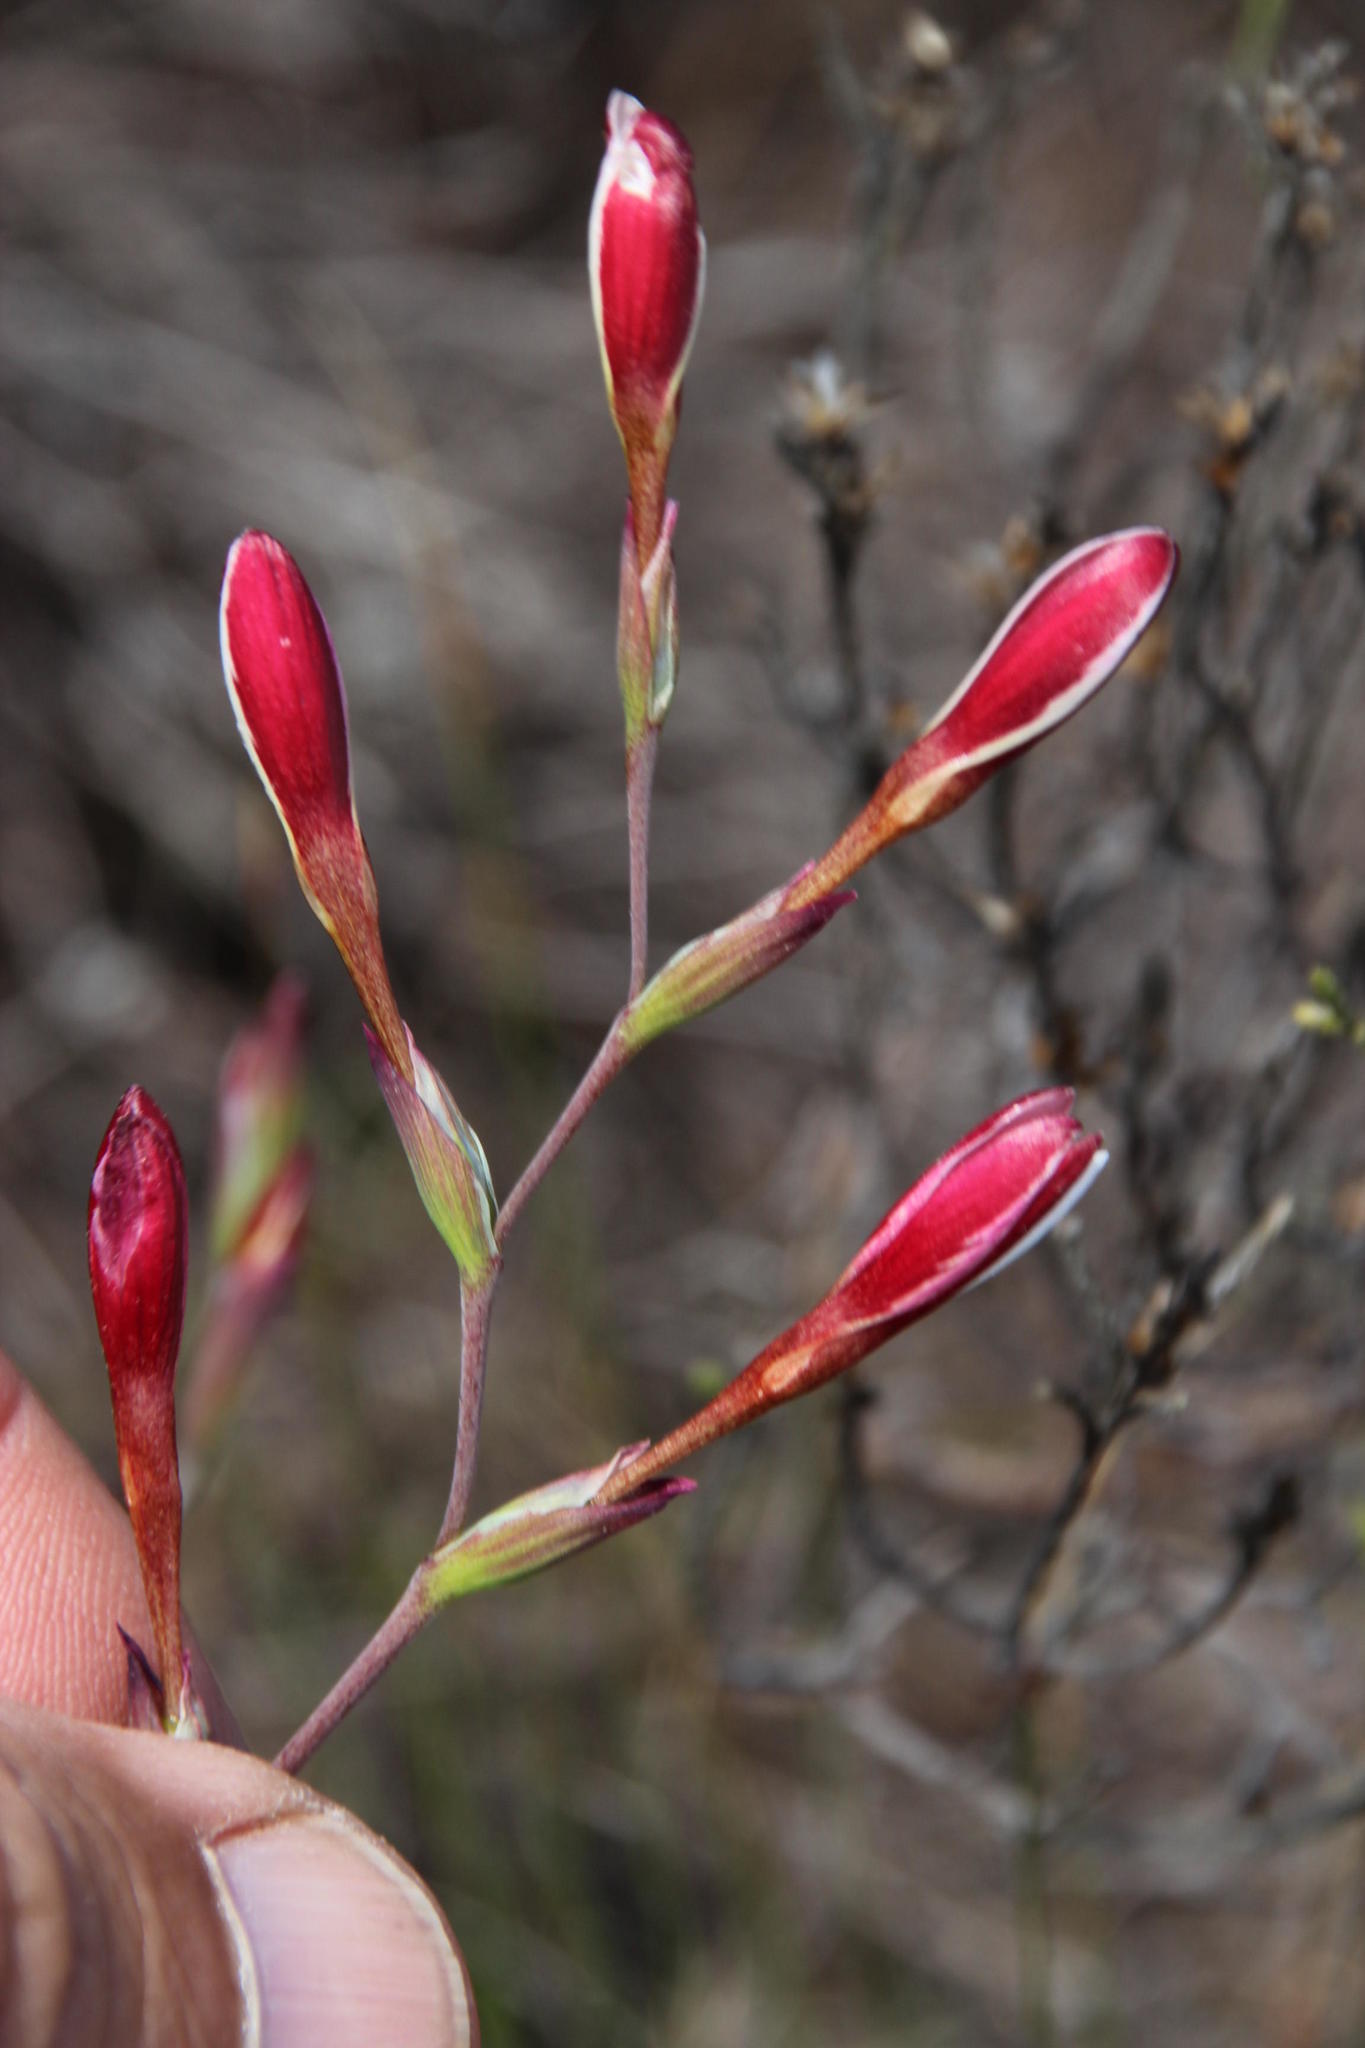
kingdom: Plantae
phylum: Tracheophyta
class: Liliopsida
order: Asparagales
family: Iridaceae
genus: Hesperantha
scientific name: Hesperantha cucullata
